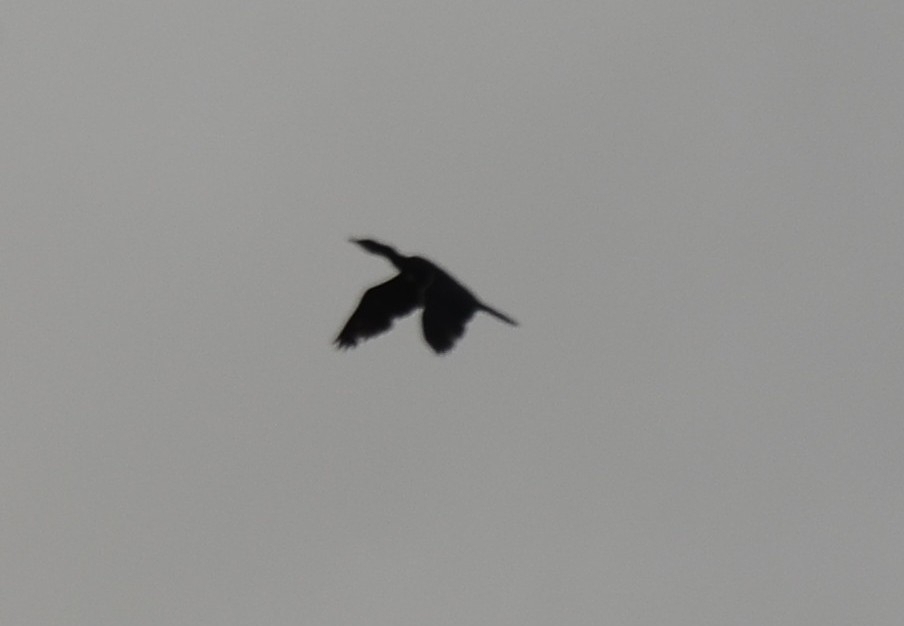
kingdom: Animalia
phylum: Chordata
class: Aves
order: Suliformes
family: Phalacrocoracidae
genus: Microcarbo
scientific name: Microcarbo niger
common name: Little cormorant
